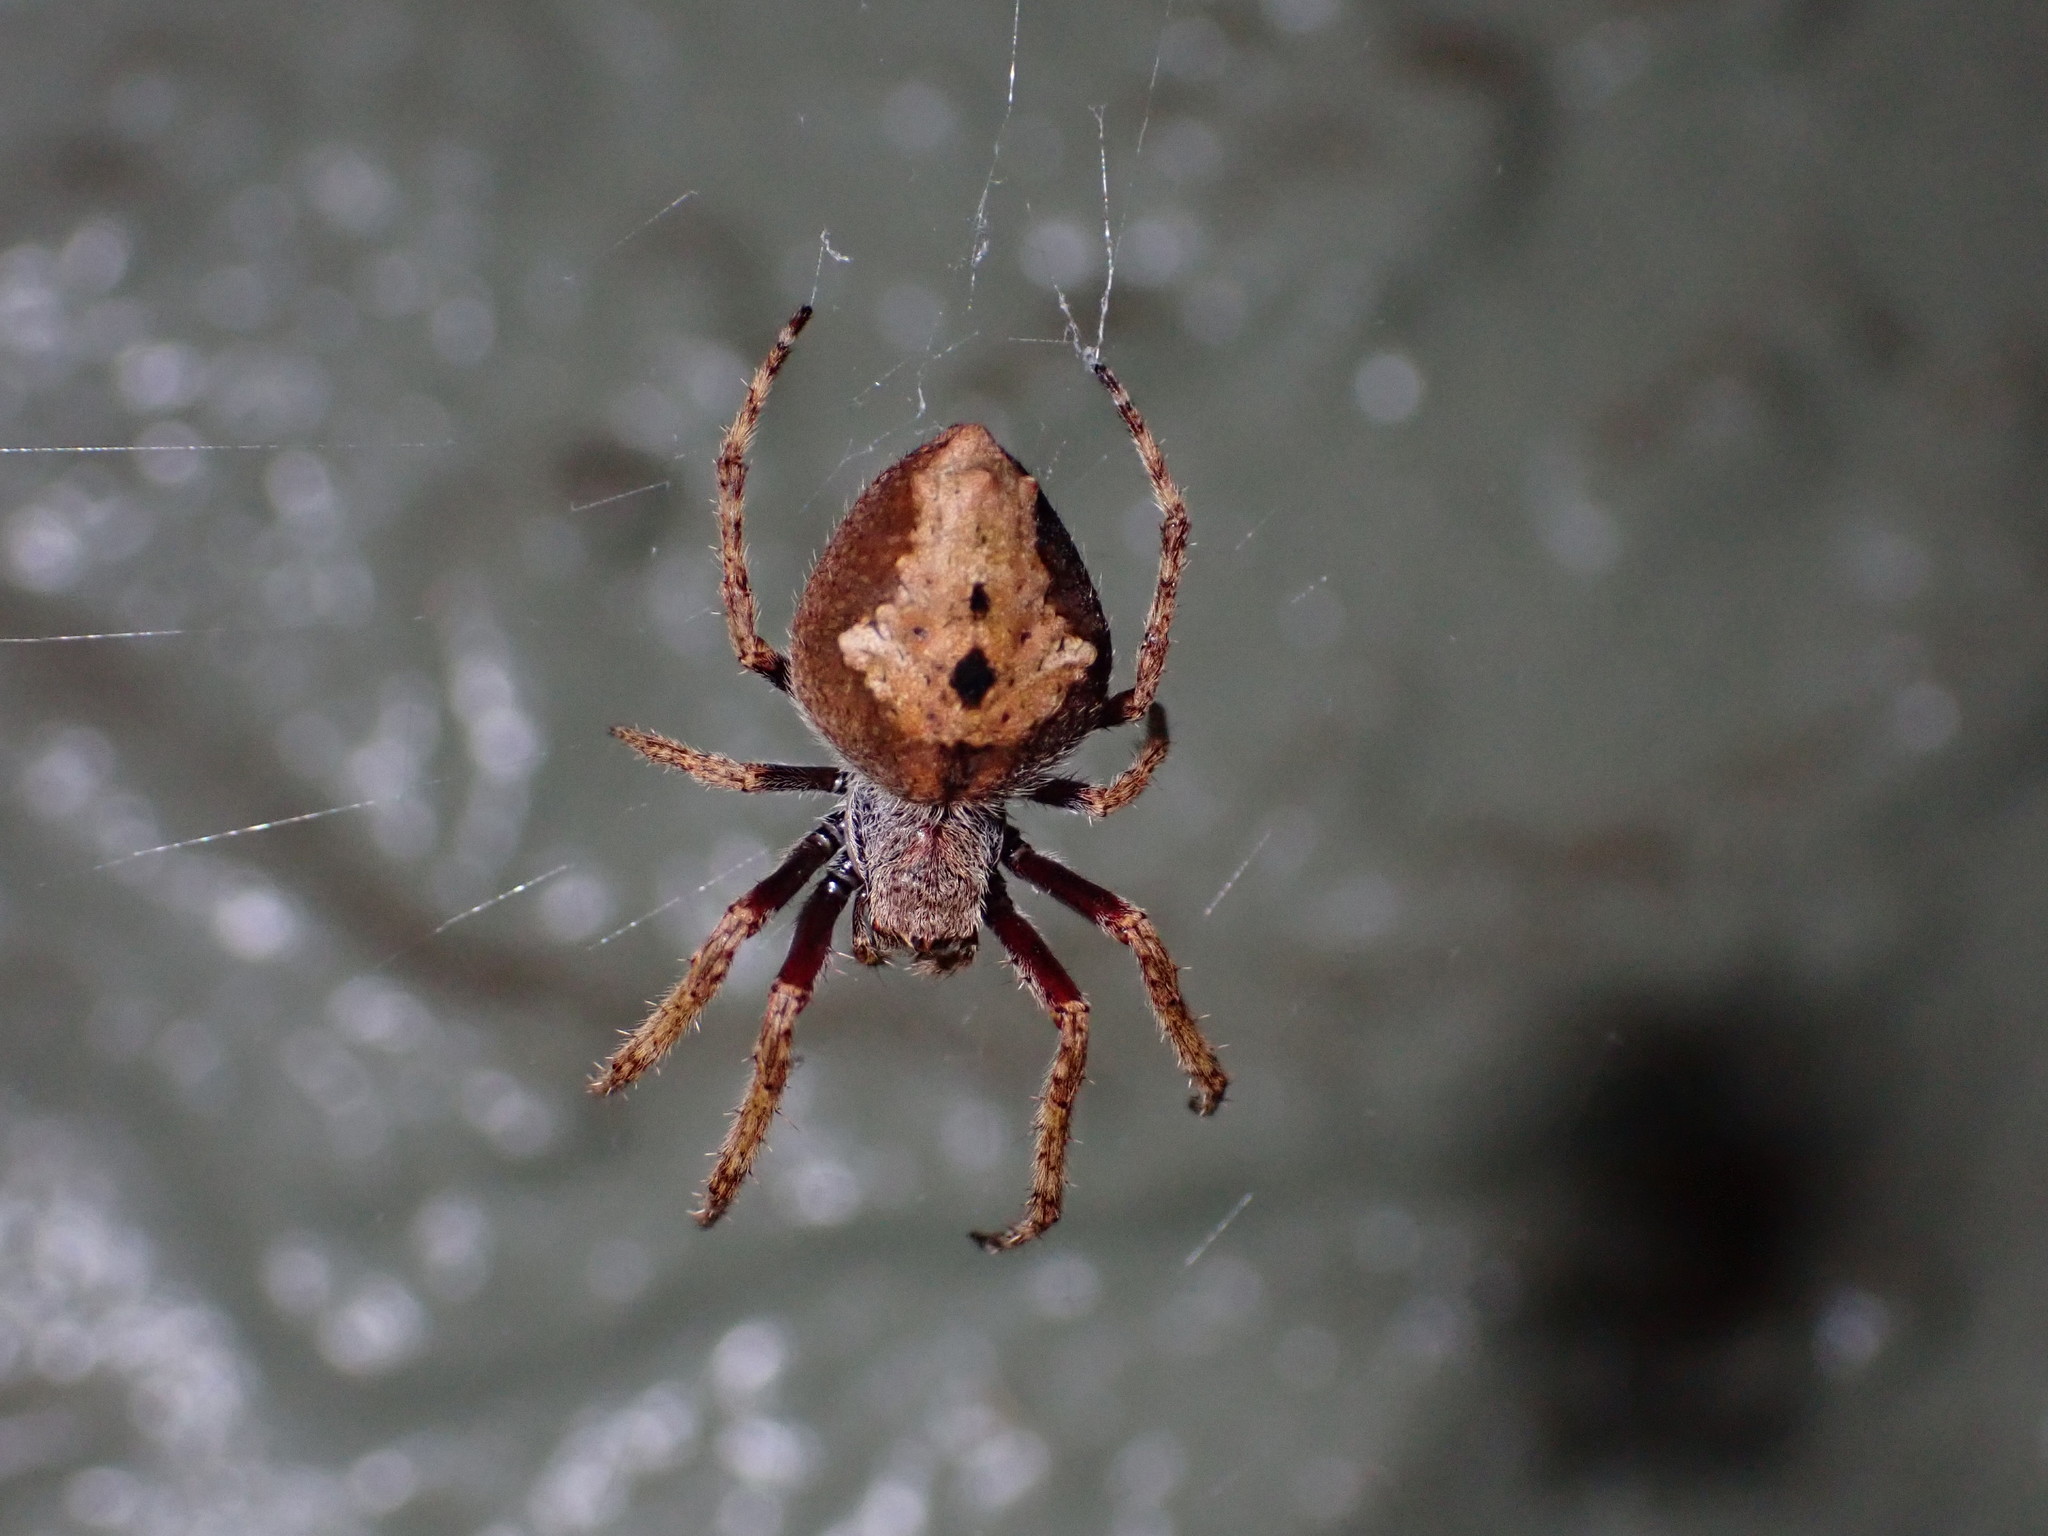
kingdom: Animalia
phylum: Arthropoda
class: Arachnida
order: Araneae
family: Araneidae
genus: Eriophora
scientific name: Eriophora pustulosa
